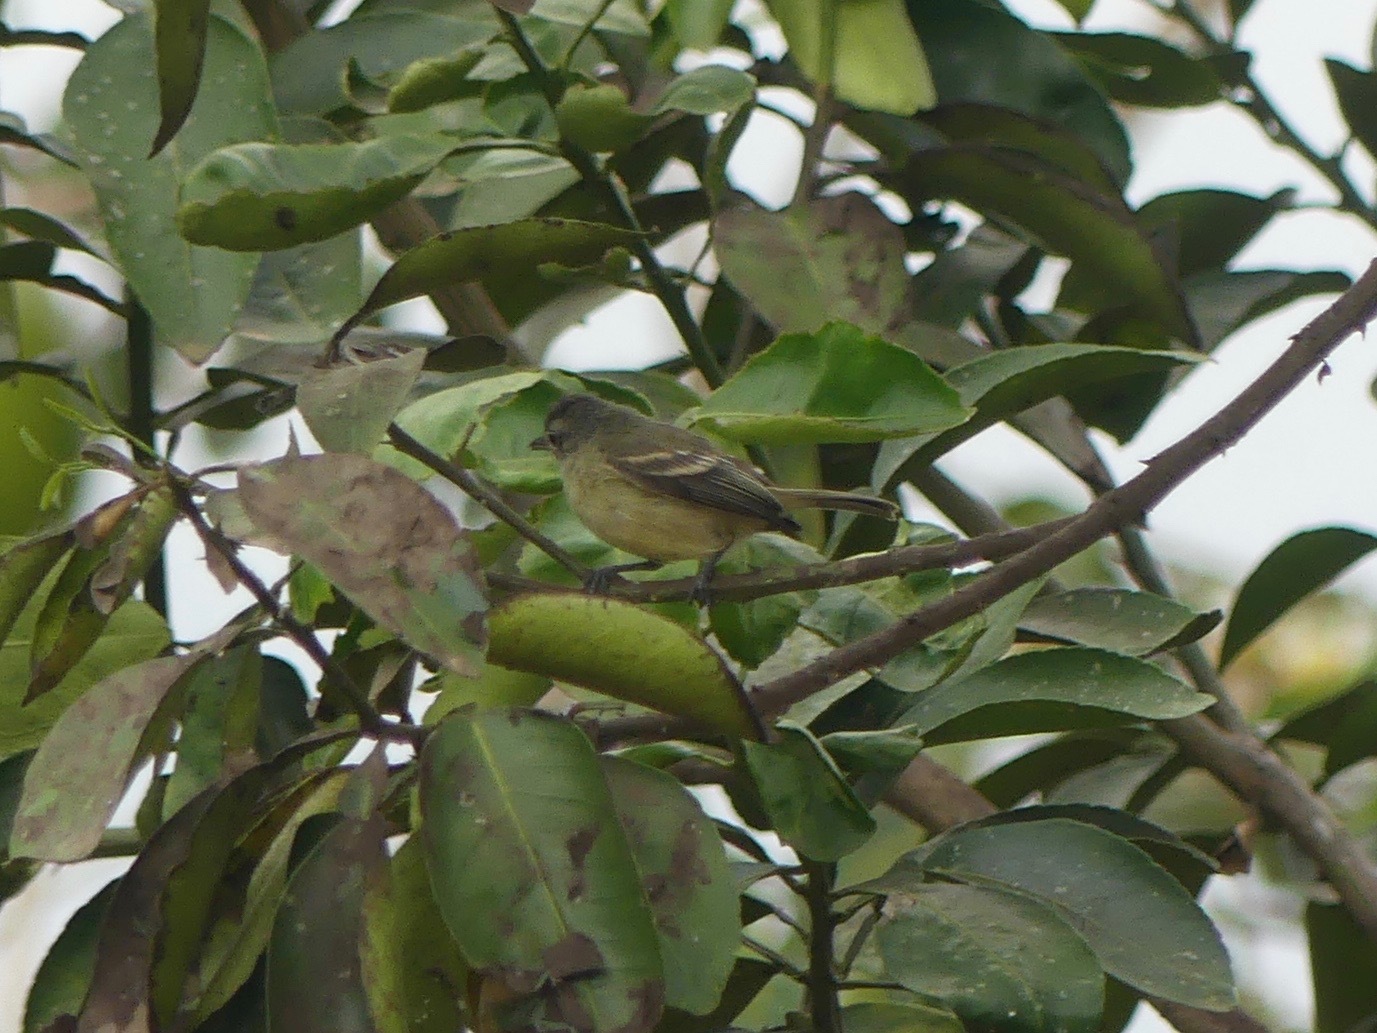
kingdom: Animalia
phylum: Chordata
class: Aves
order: Passeriformes
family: Tyrannidae
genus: Camptostoma
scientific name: Camptostoma obsoletum
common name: Southern beardless-tyrannulet
